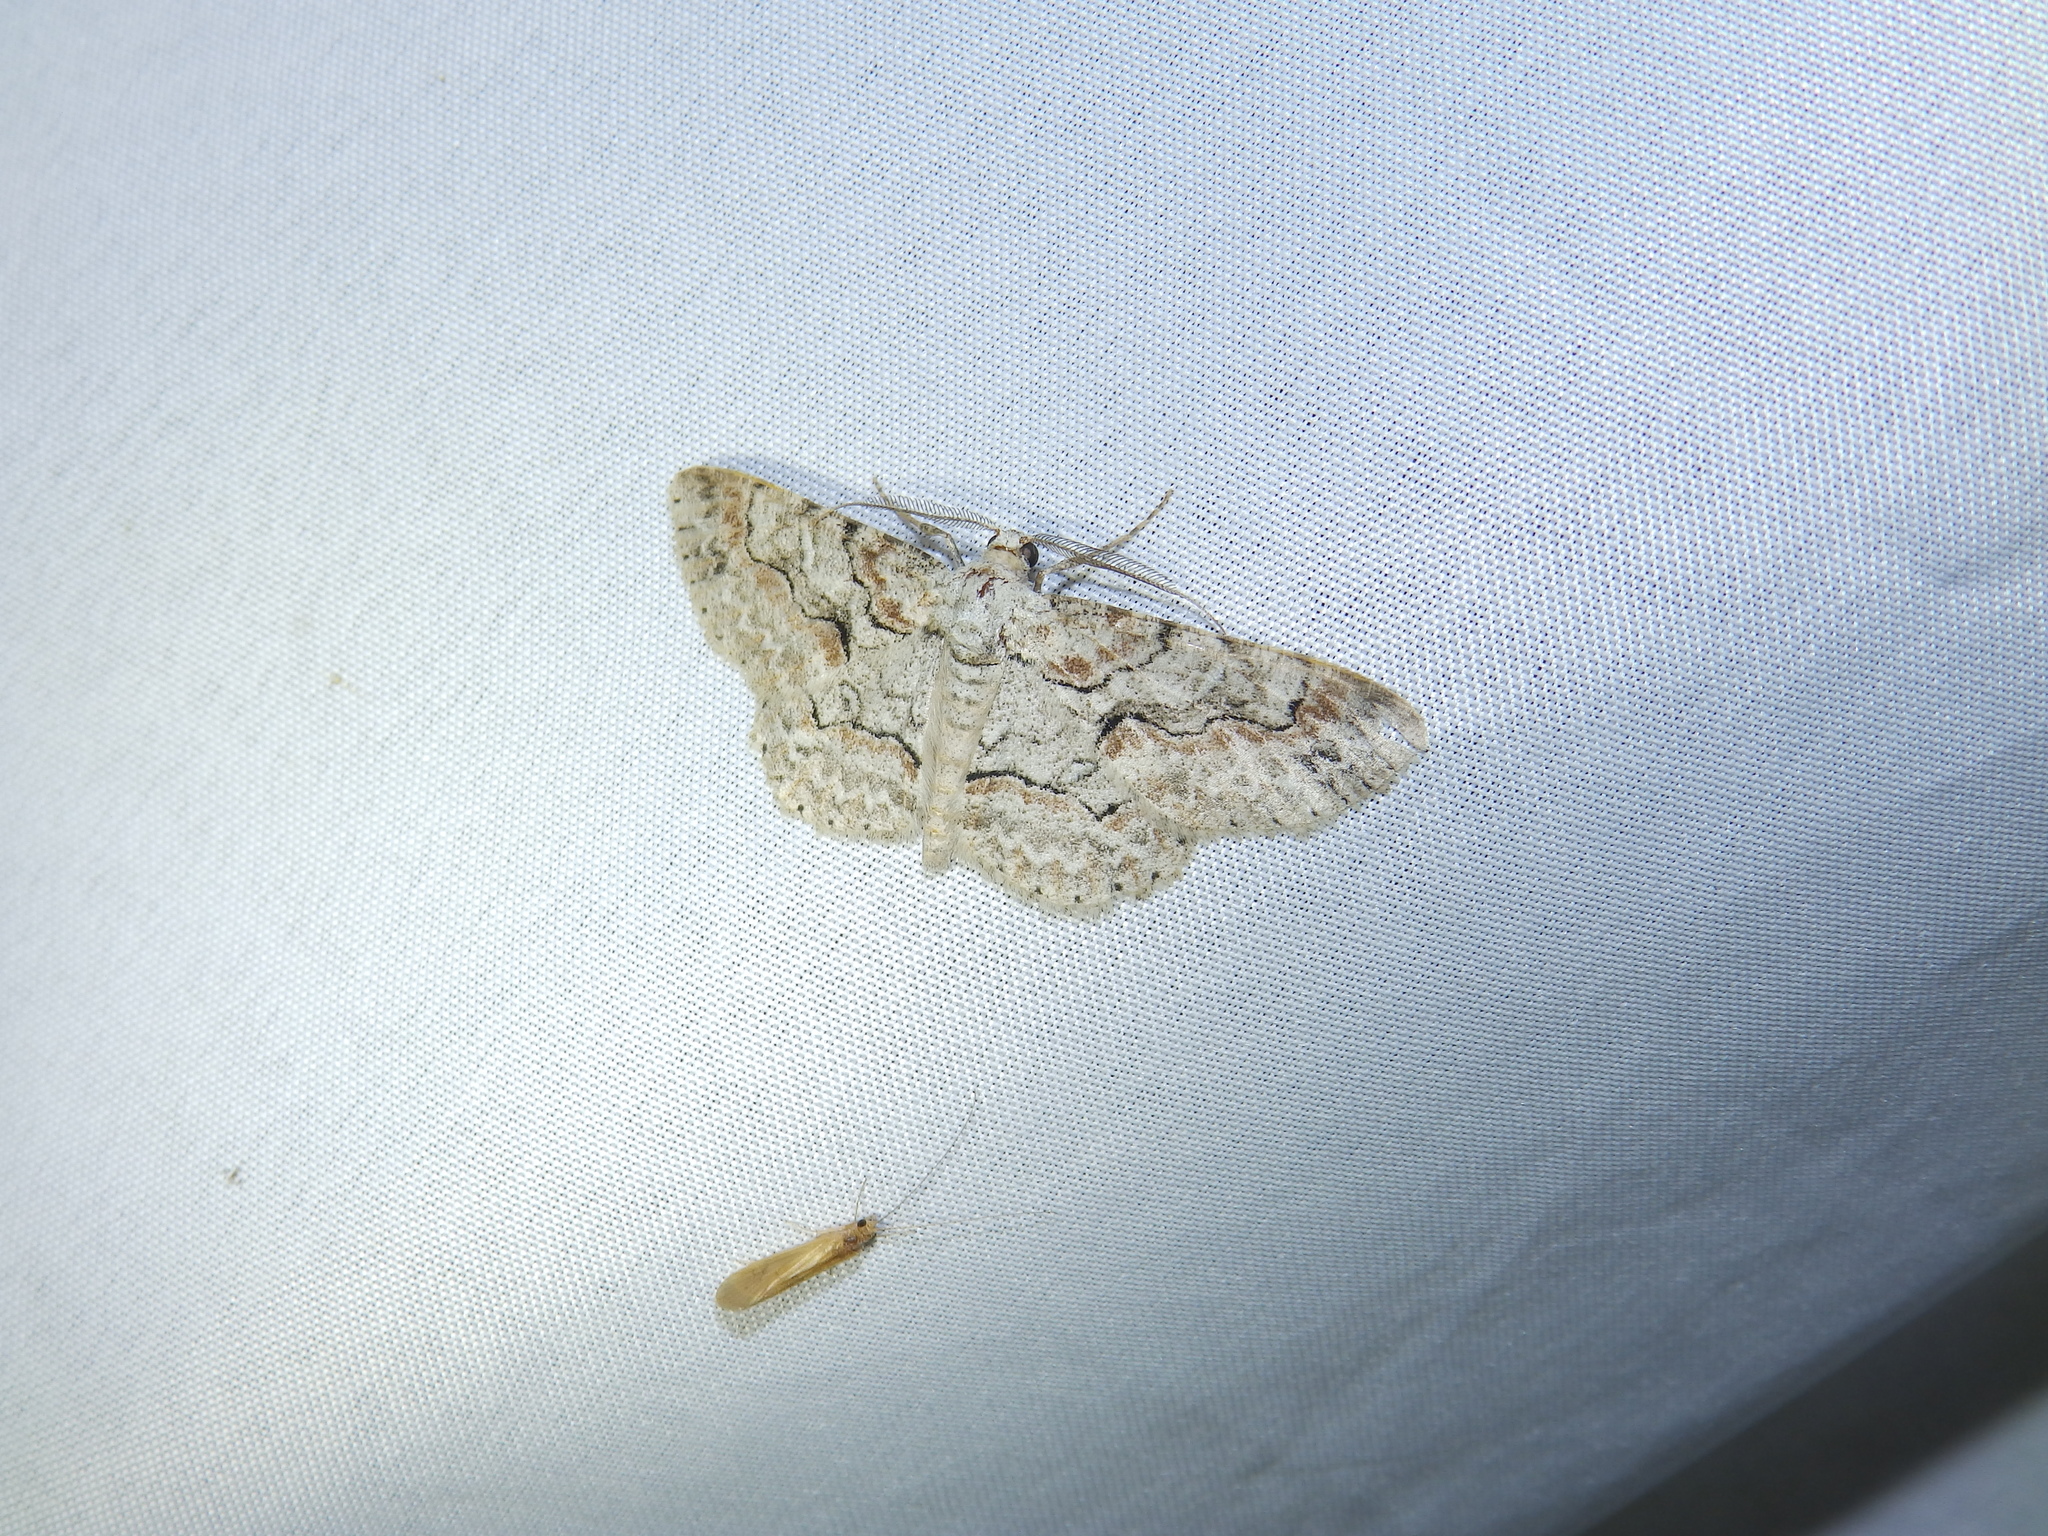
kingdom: Animalia
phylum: Arthropoda
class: Insecta
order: Lepidoptera
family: Geometridae
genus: Iridopsis
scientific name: Iridopsis defectaria
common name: Brown-shaded gray
